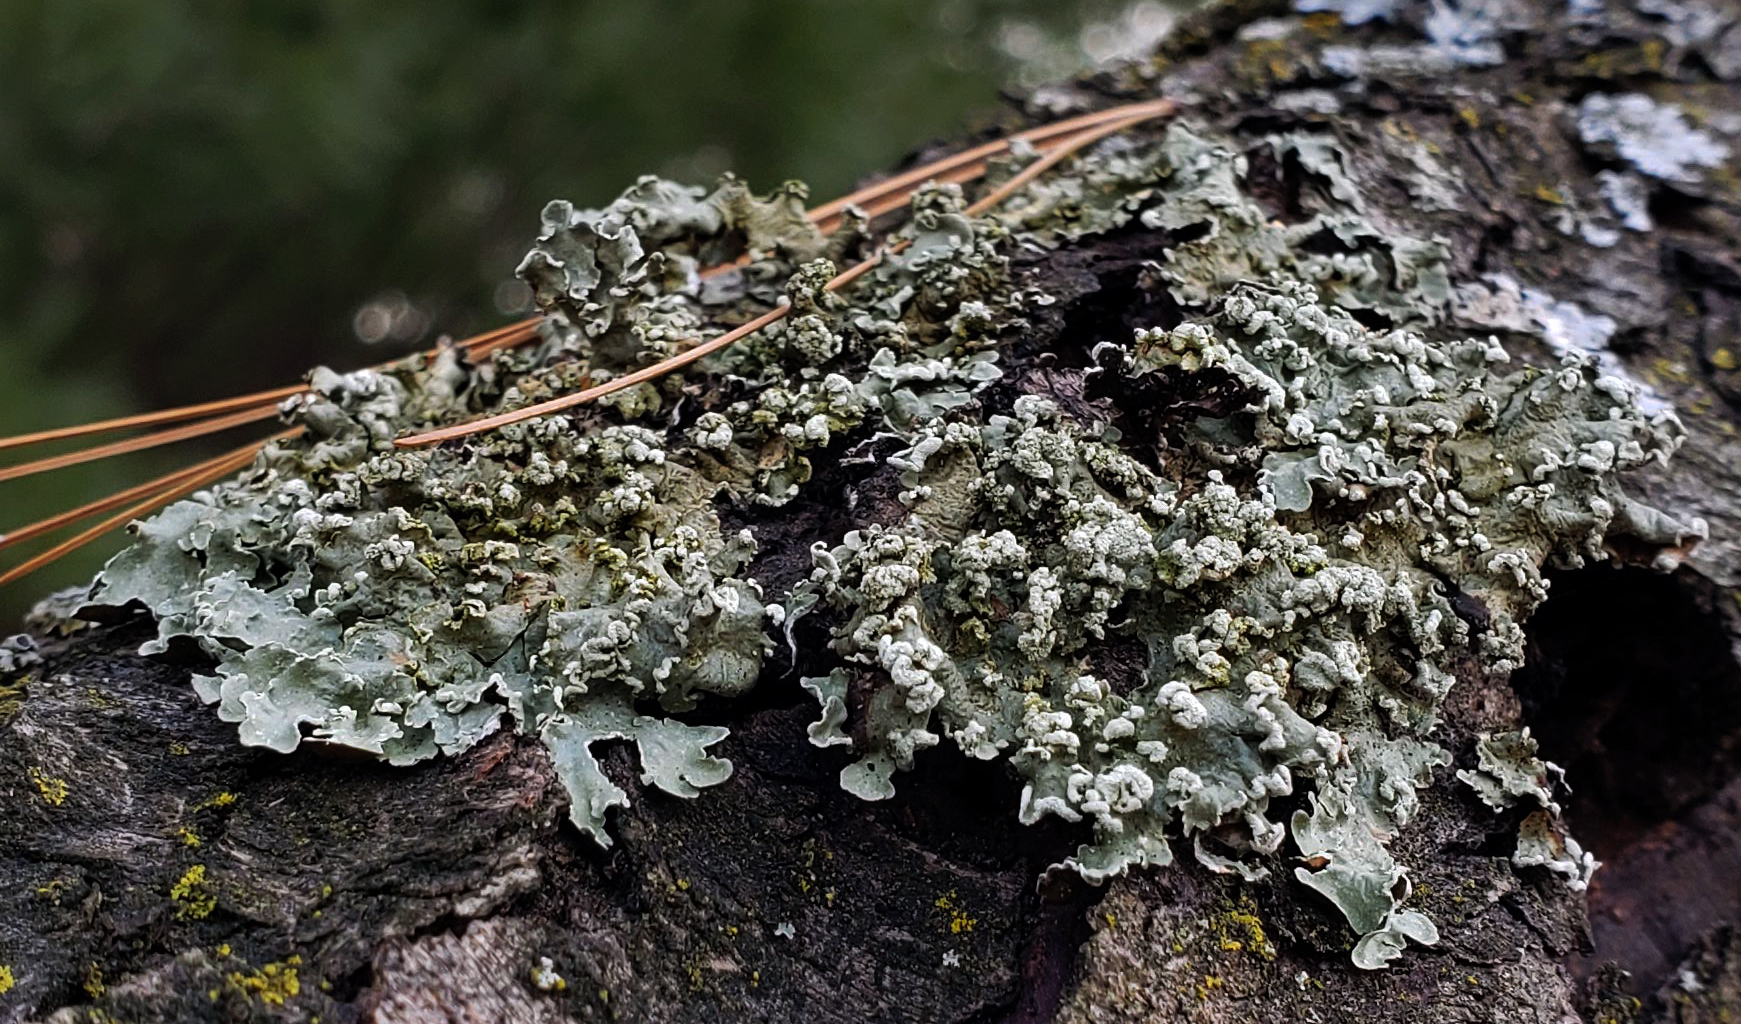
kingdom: Fungi
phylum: Ascomycota
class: Lecanoromycetes
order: Lecanorales
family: Parmeliaceae
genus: Flavopunctelia
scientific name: Flavopunctelia soredica
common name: Powder-edged speckled greenshield
